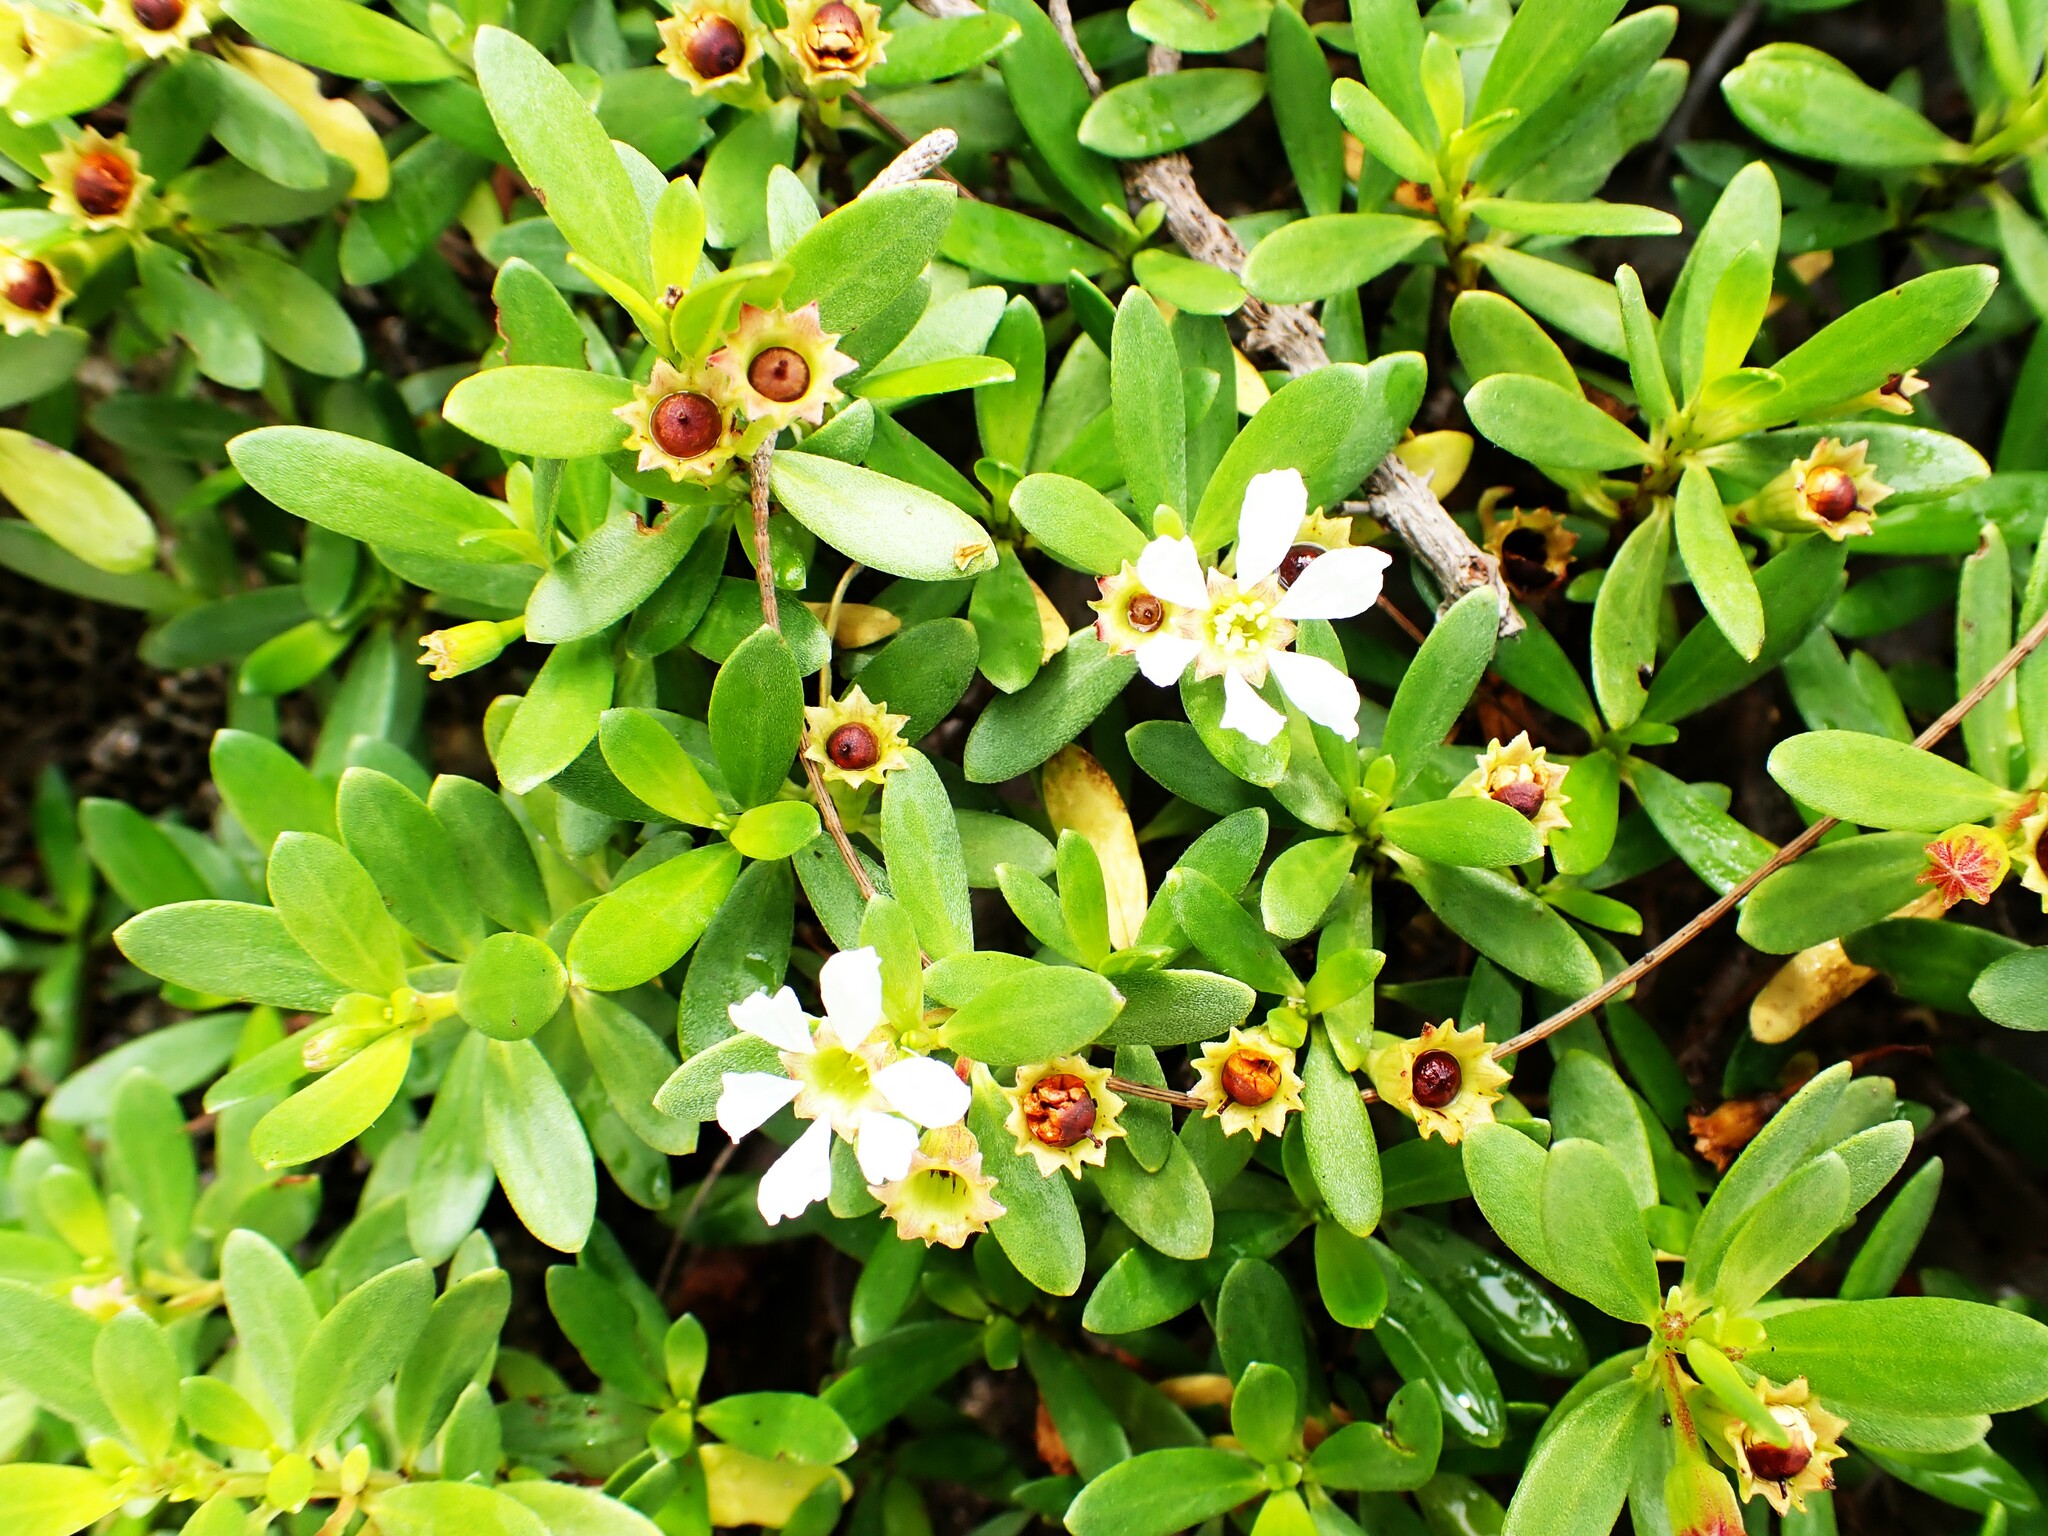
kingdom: Plantae
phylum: Tracheophyta
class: Magnoliopsida
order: Myrtales
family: Lythraceae
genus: Pemphis
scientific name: Pemphis acidula
